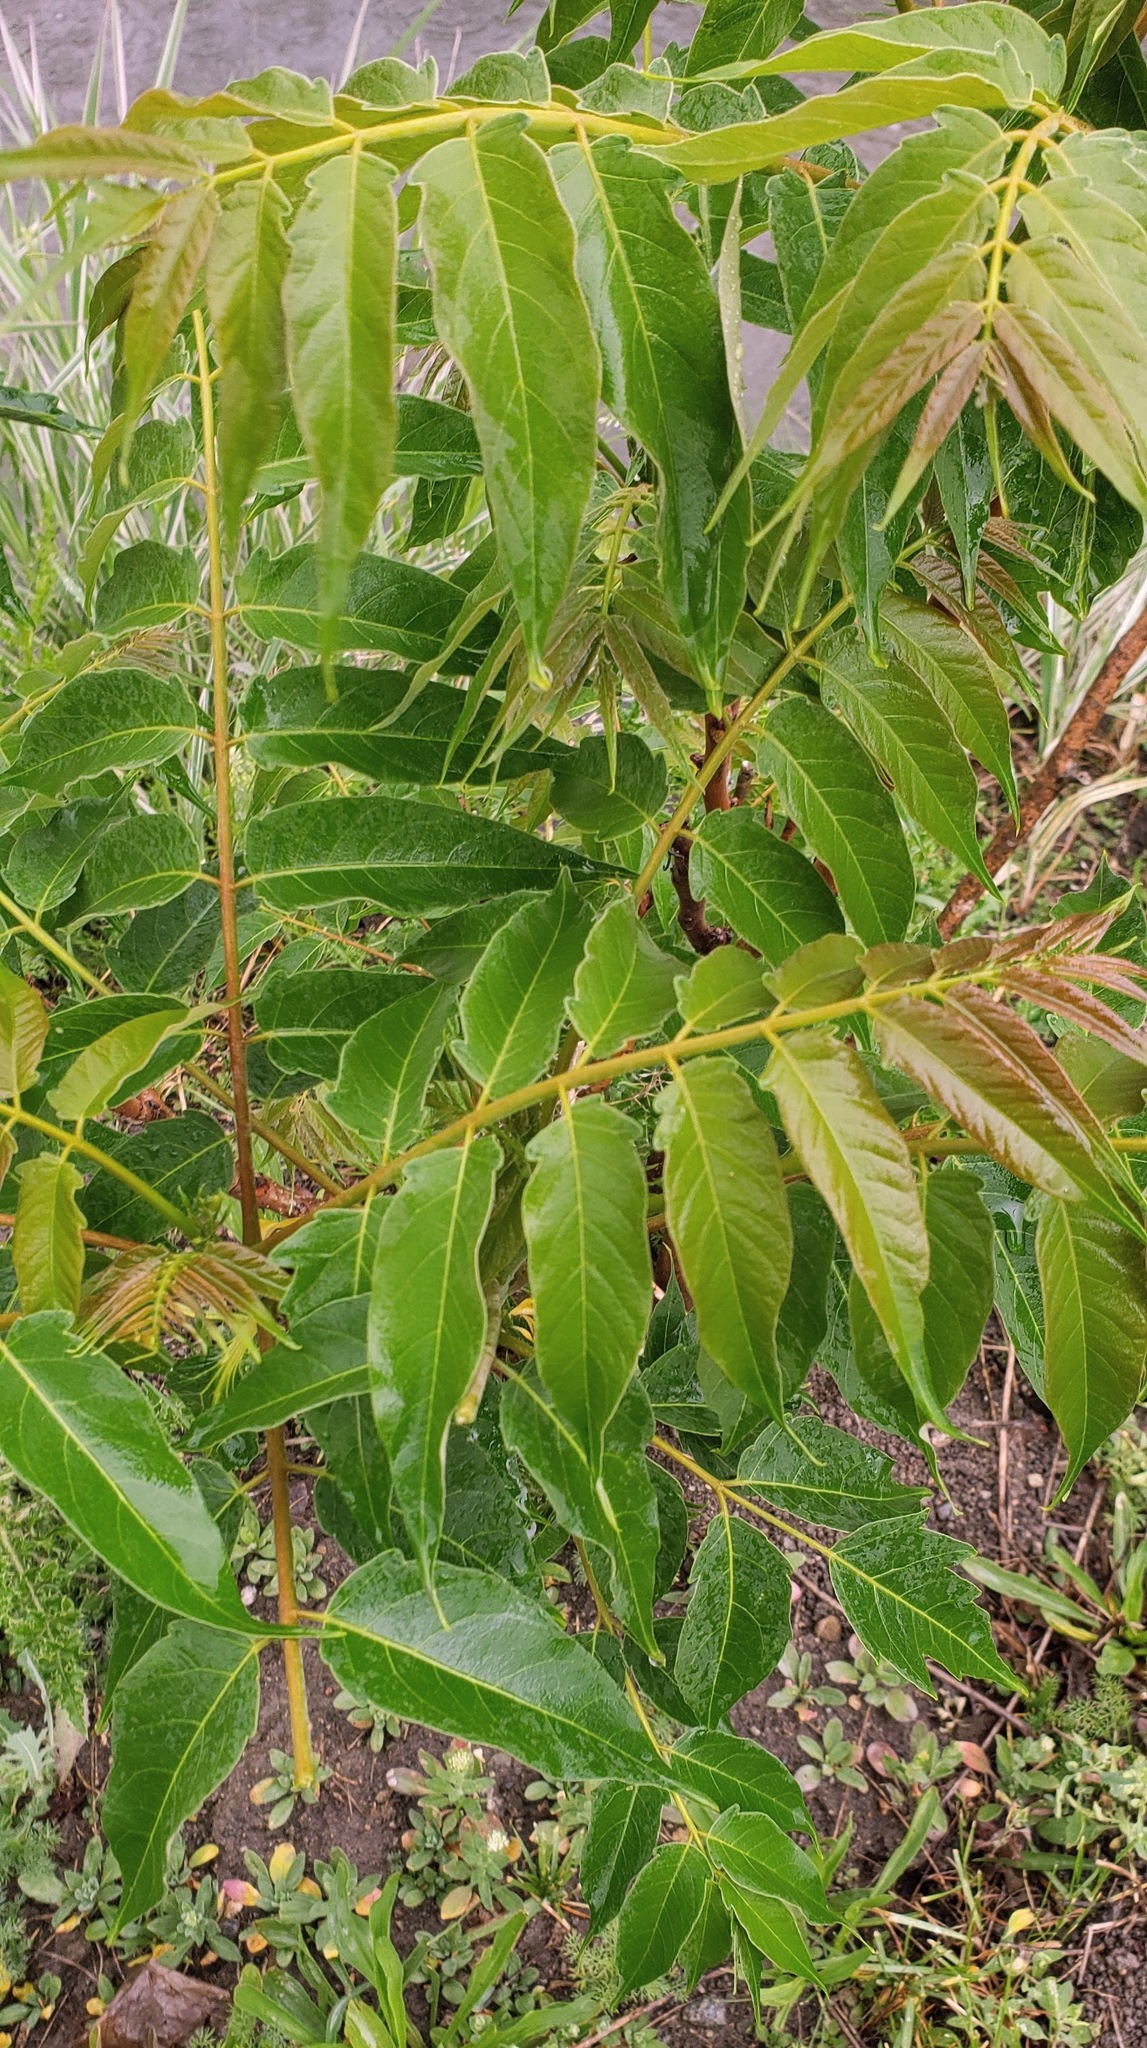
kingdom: Plantae
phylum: Tracheophyta
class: Magnoliopsida
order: Sapindales
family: Simaroubaceae
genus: Ailanthus
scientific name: Ailanthus altissima
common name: Tree-of-heaven
